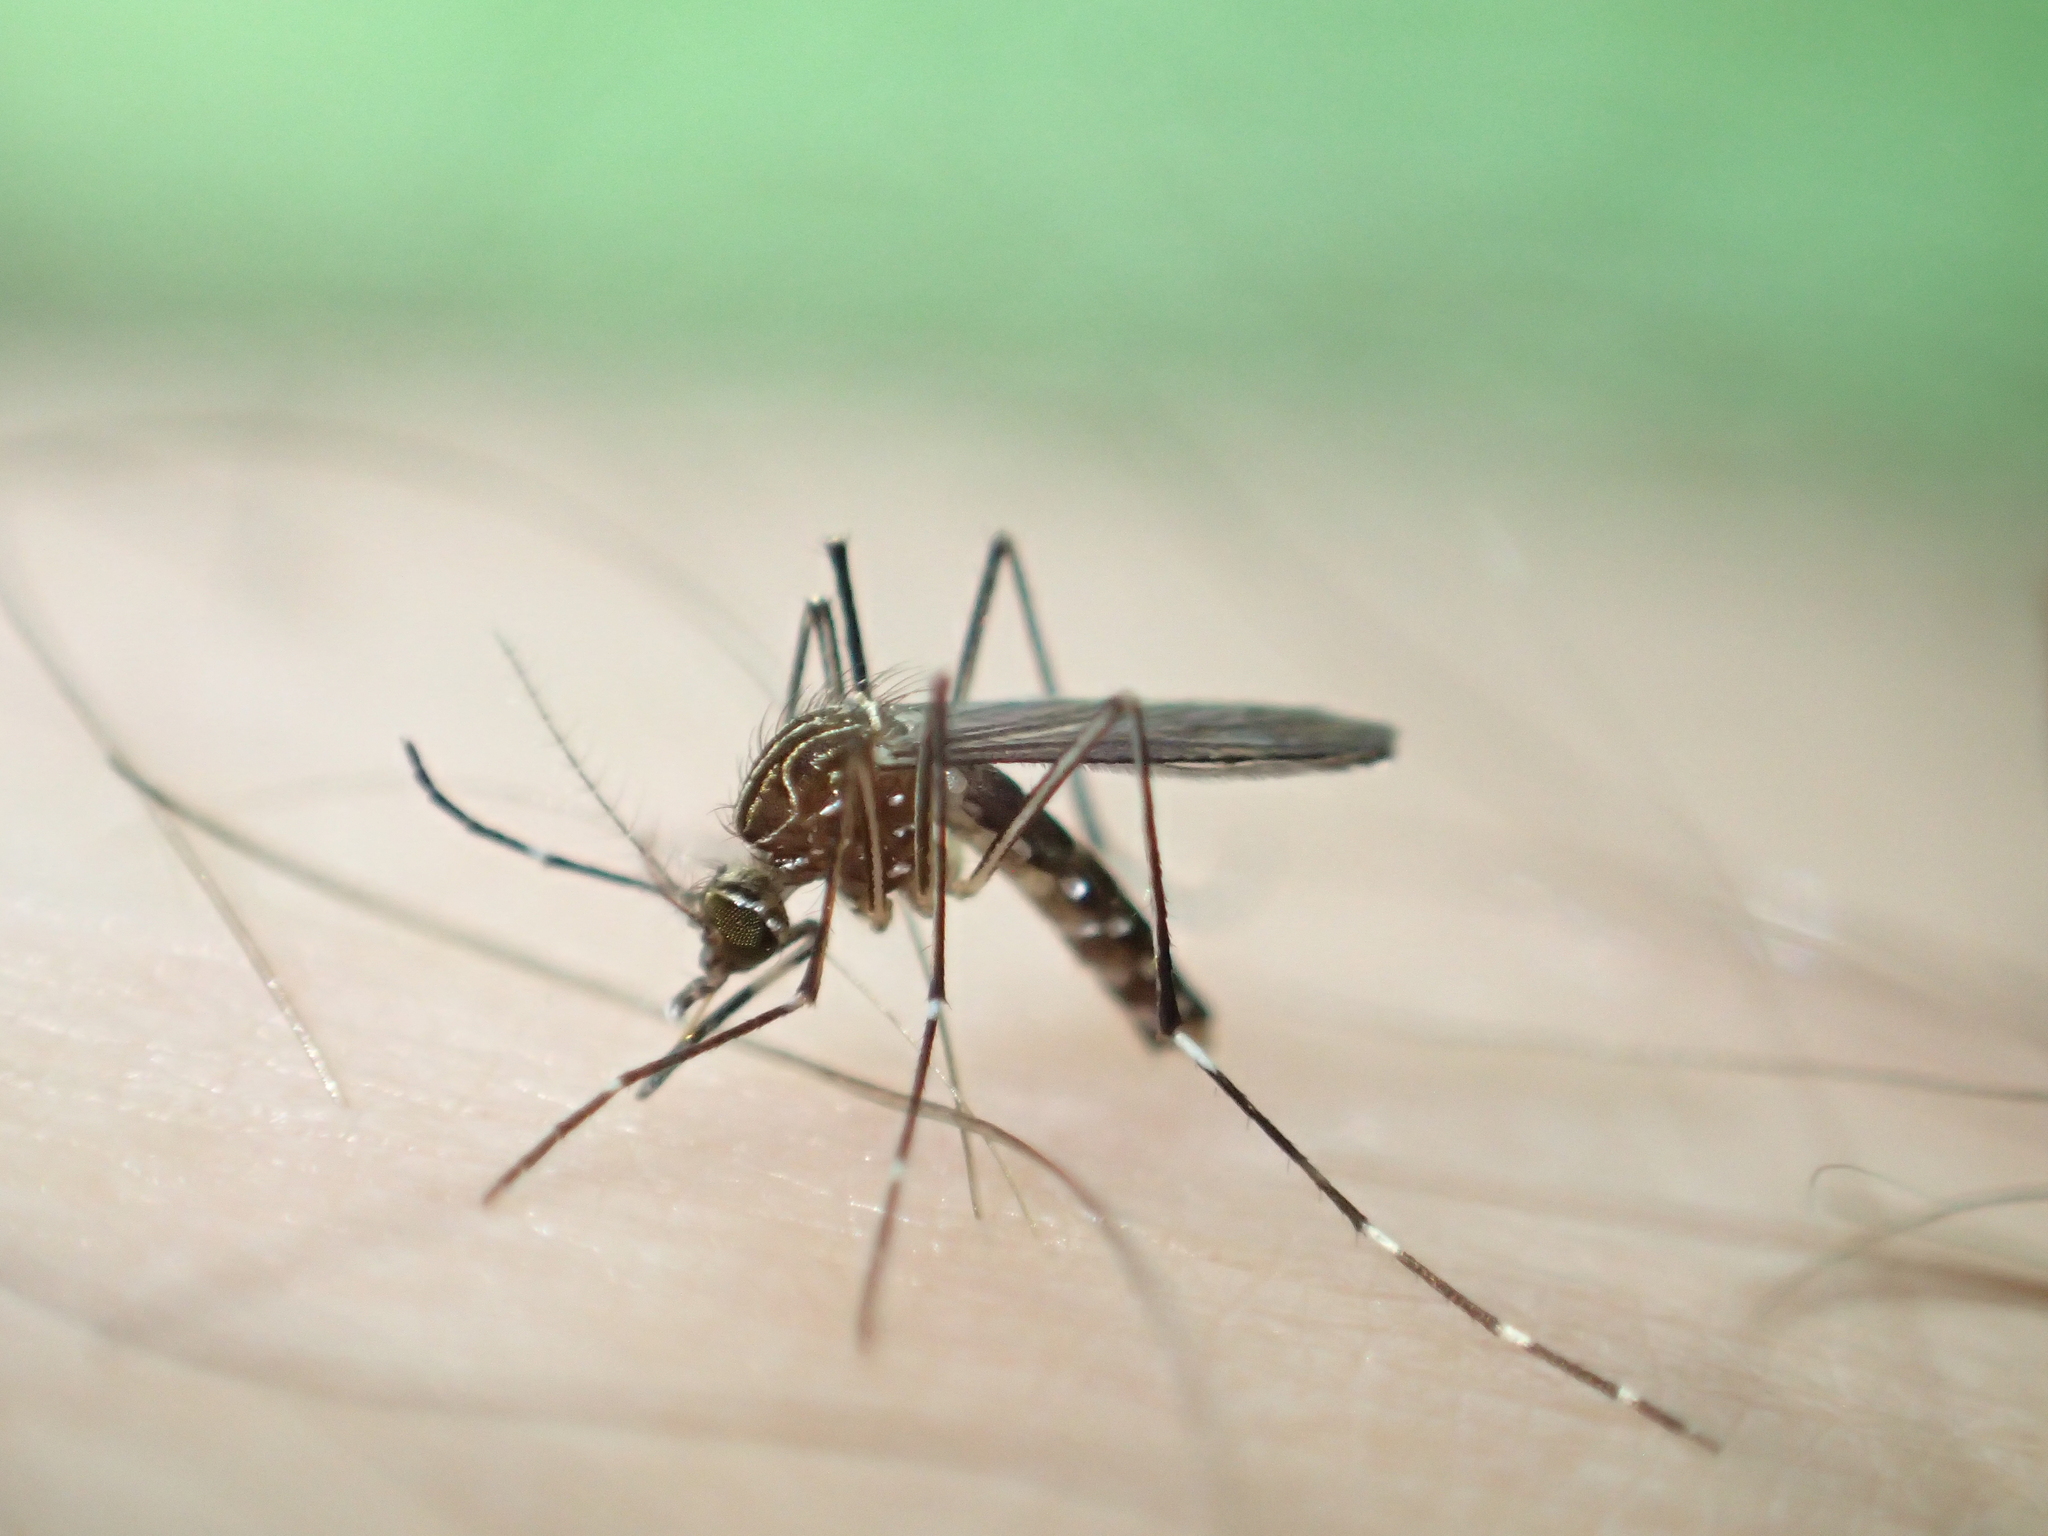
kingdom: Animalia
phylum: Arthropoda
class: Insecta
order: Diptera
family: Culicidae
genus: Aedes
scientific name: Aedes notoscriptus
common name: Australian backyard mosquito
